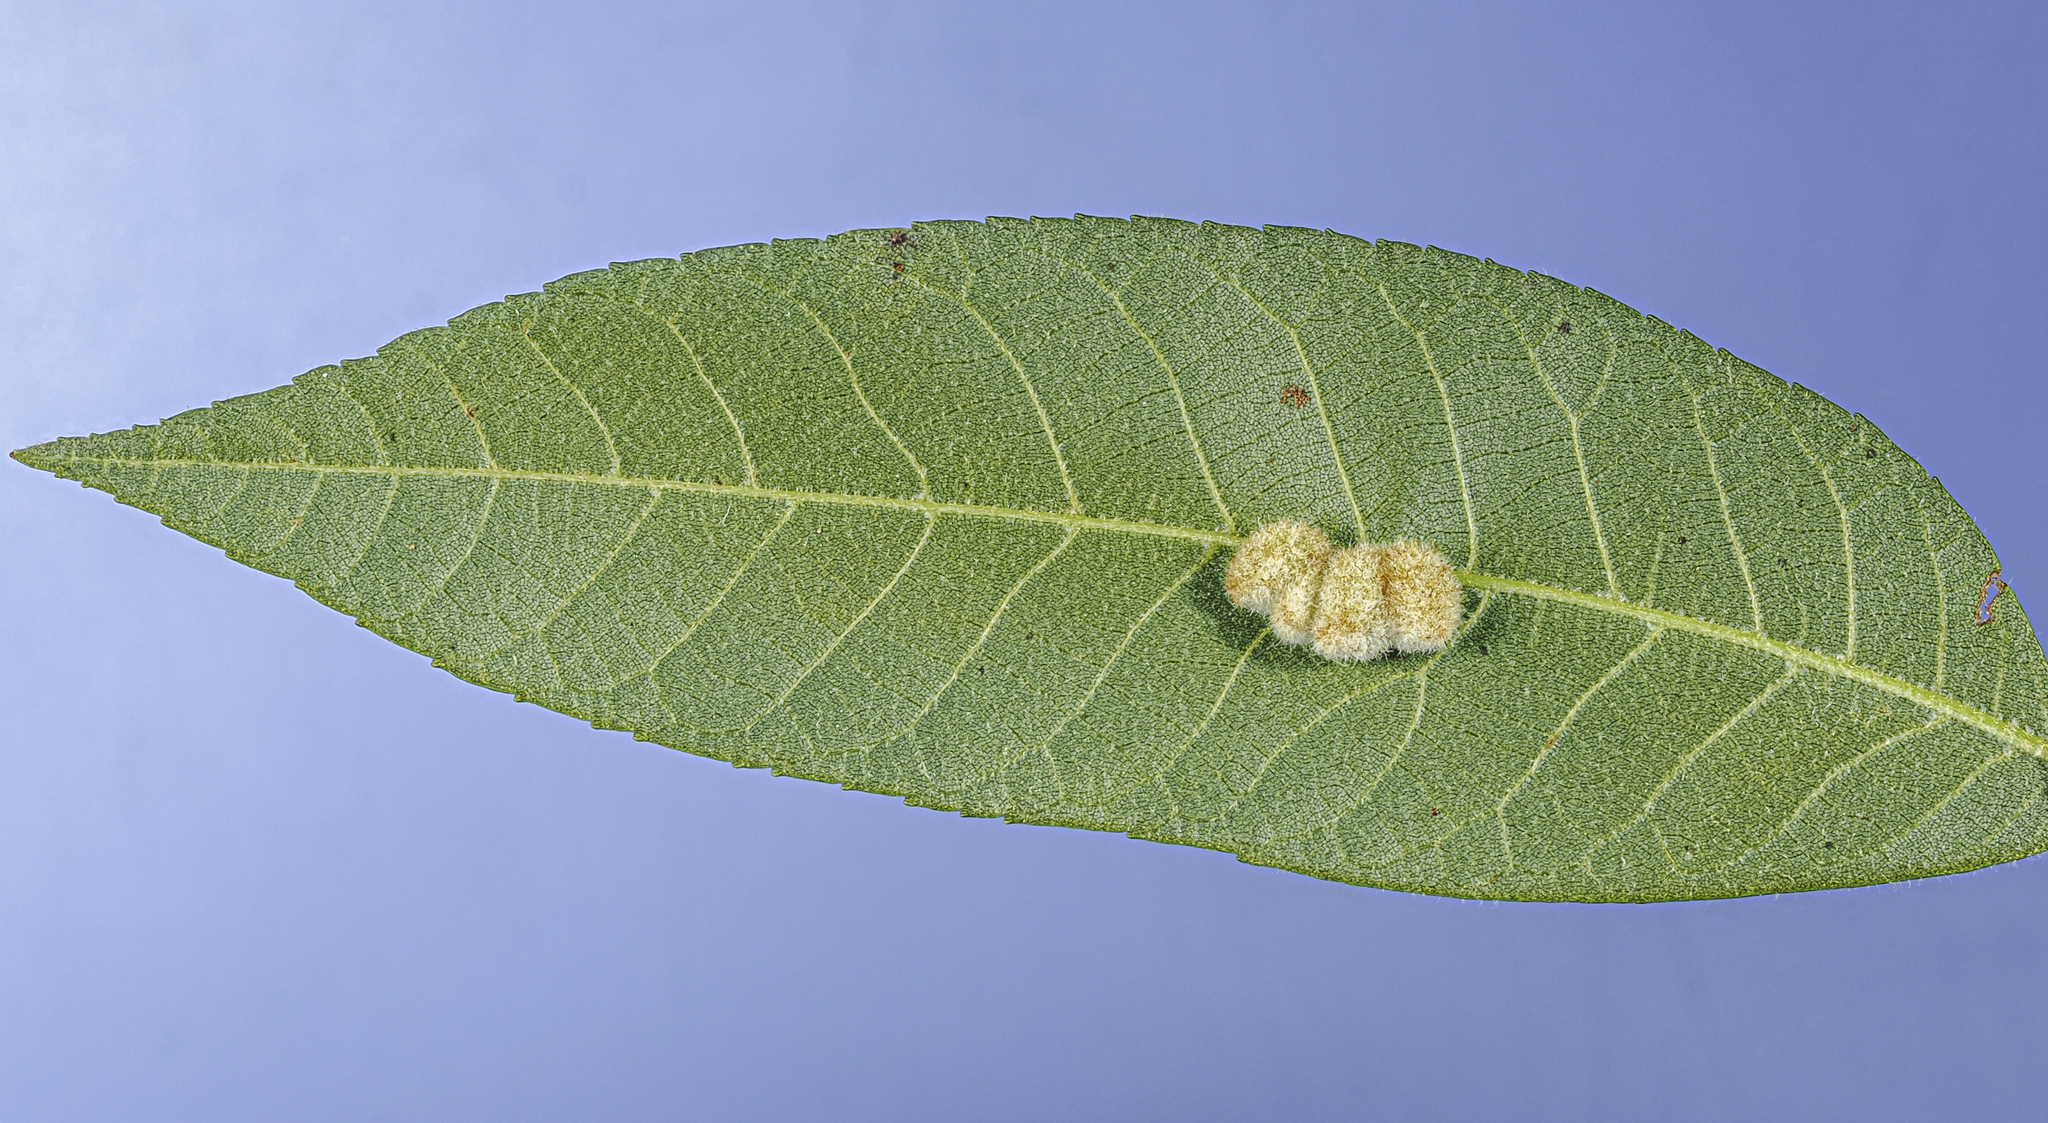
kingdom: Animalia
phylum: Arthropoda
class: Insecta
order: Diptera
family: Cecidomyiidae
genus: Caryomyia
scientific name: Caryomyia aggregata
